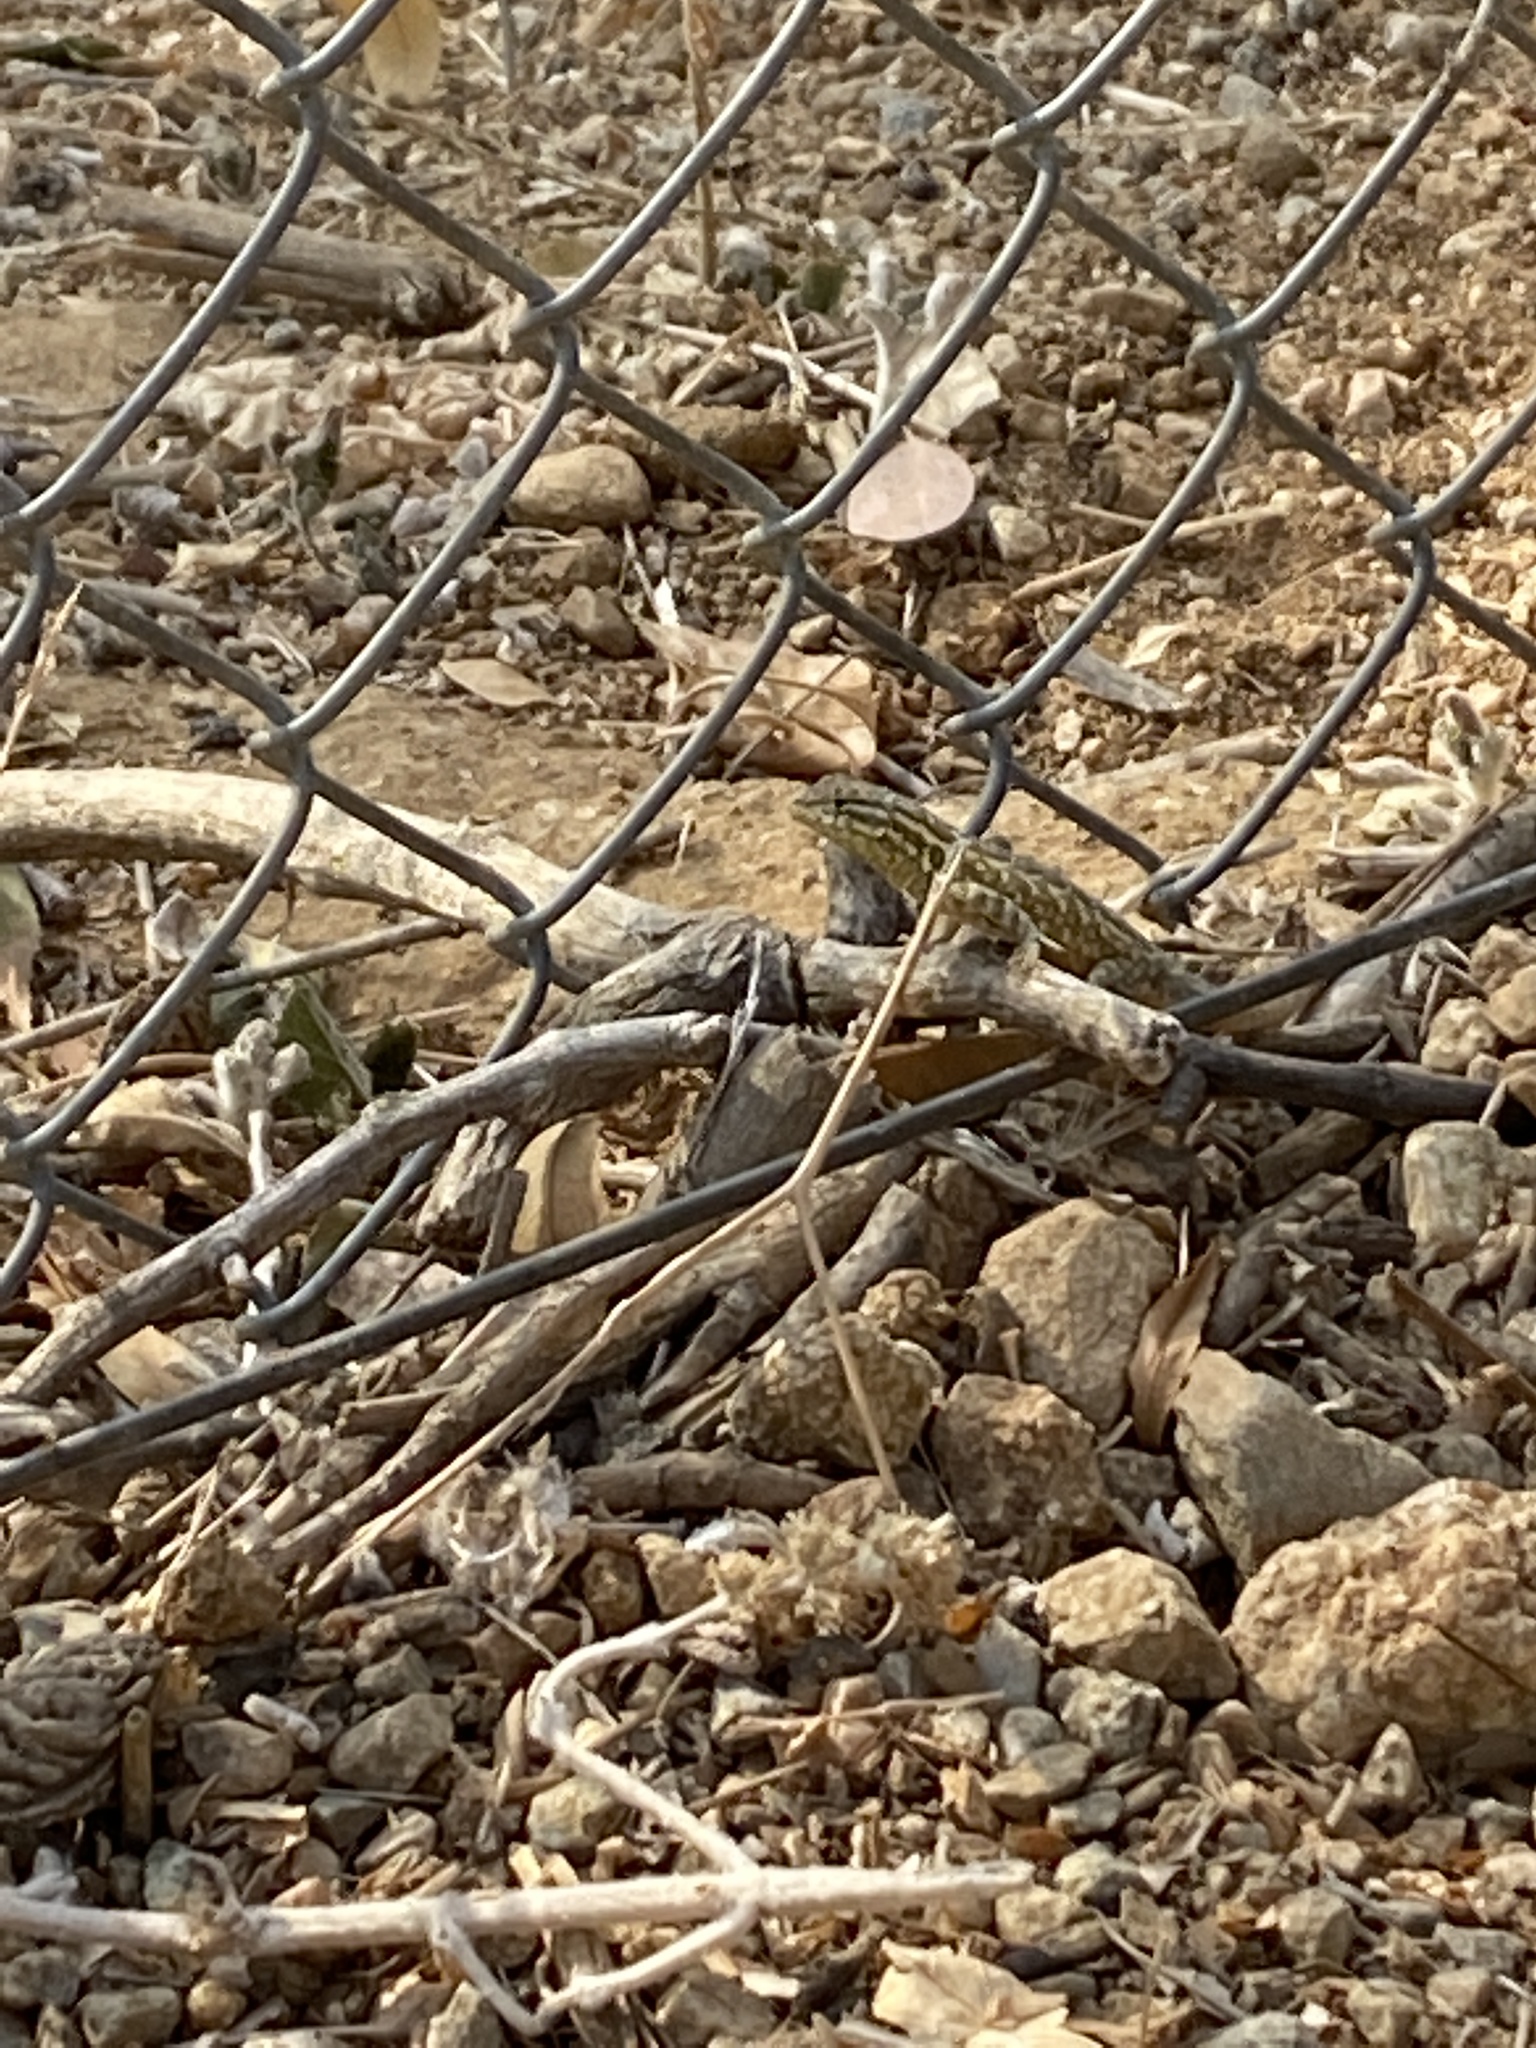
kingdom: Animalia
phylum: Chordata
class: Squamata
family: Phrynosomatidae
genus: Uta
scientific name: Uta stansburiana
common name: Side-blotched lizard
